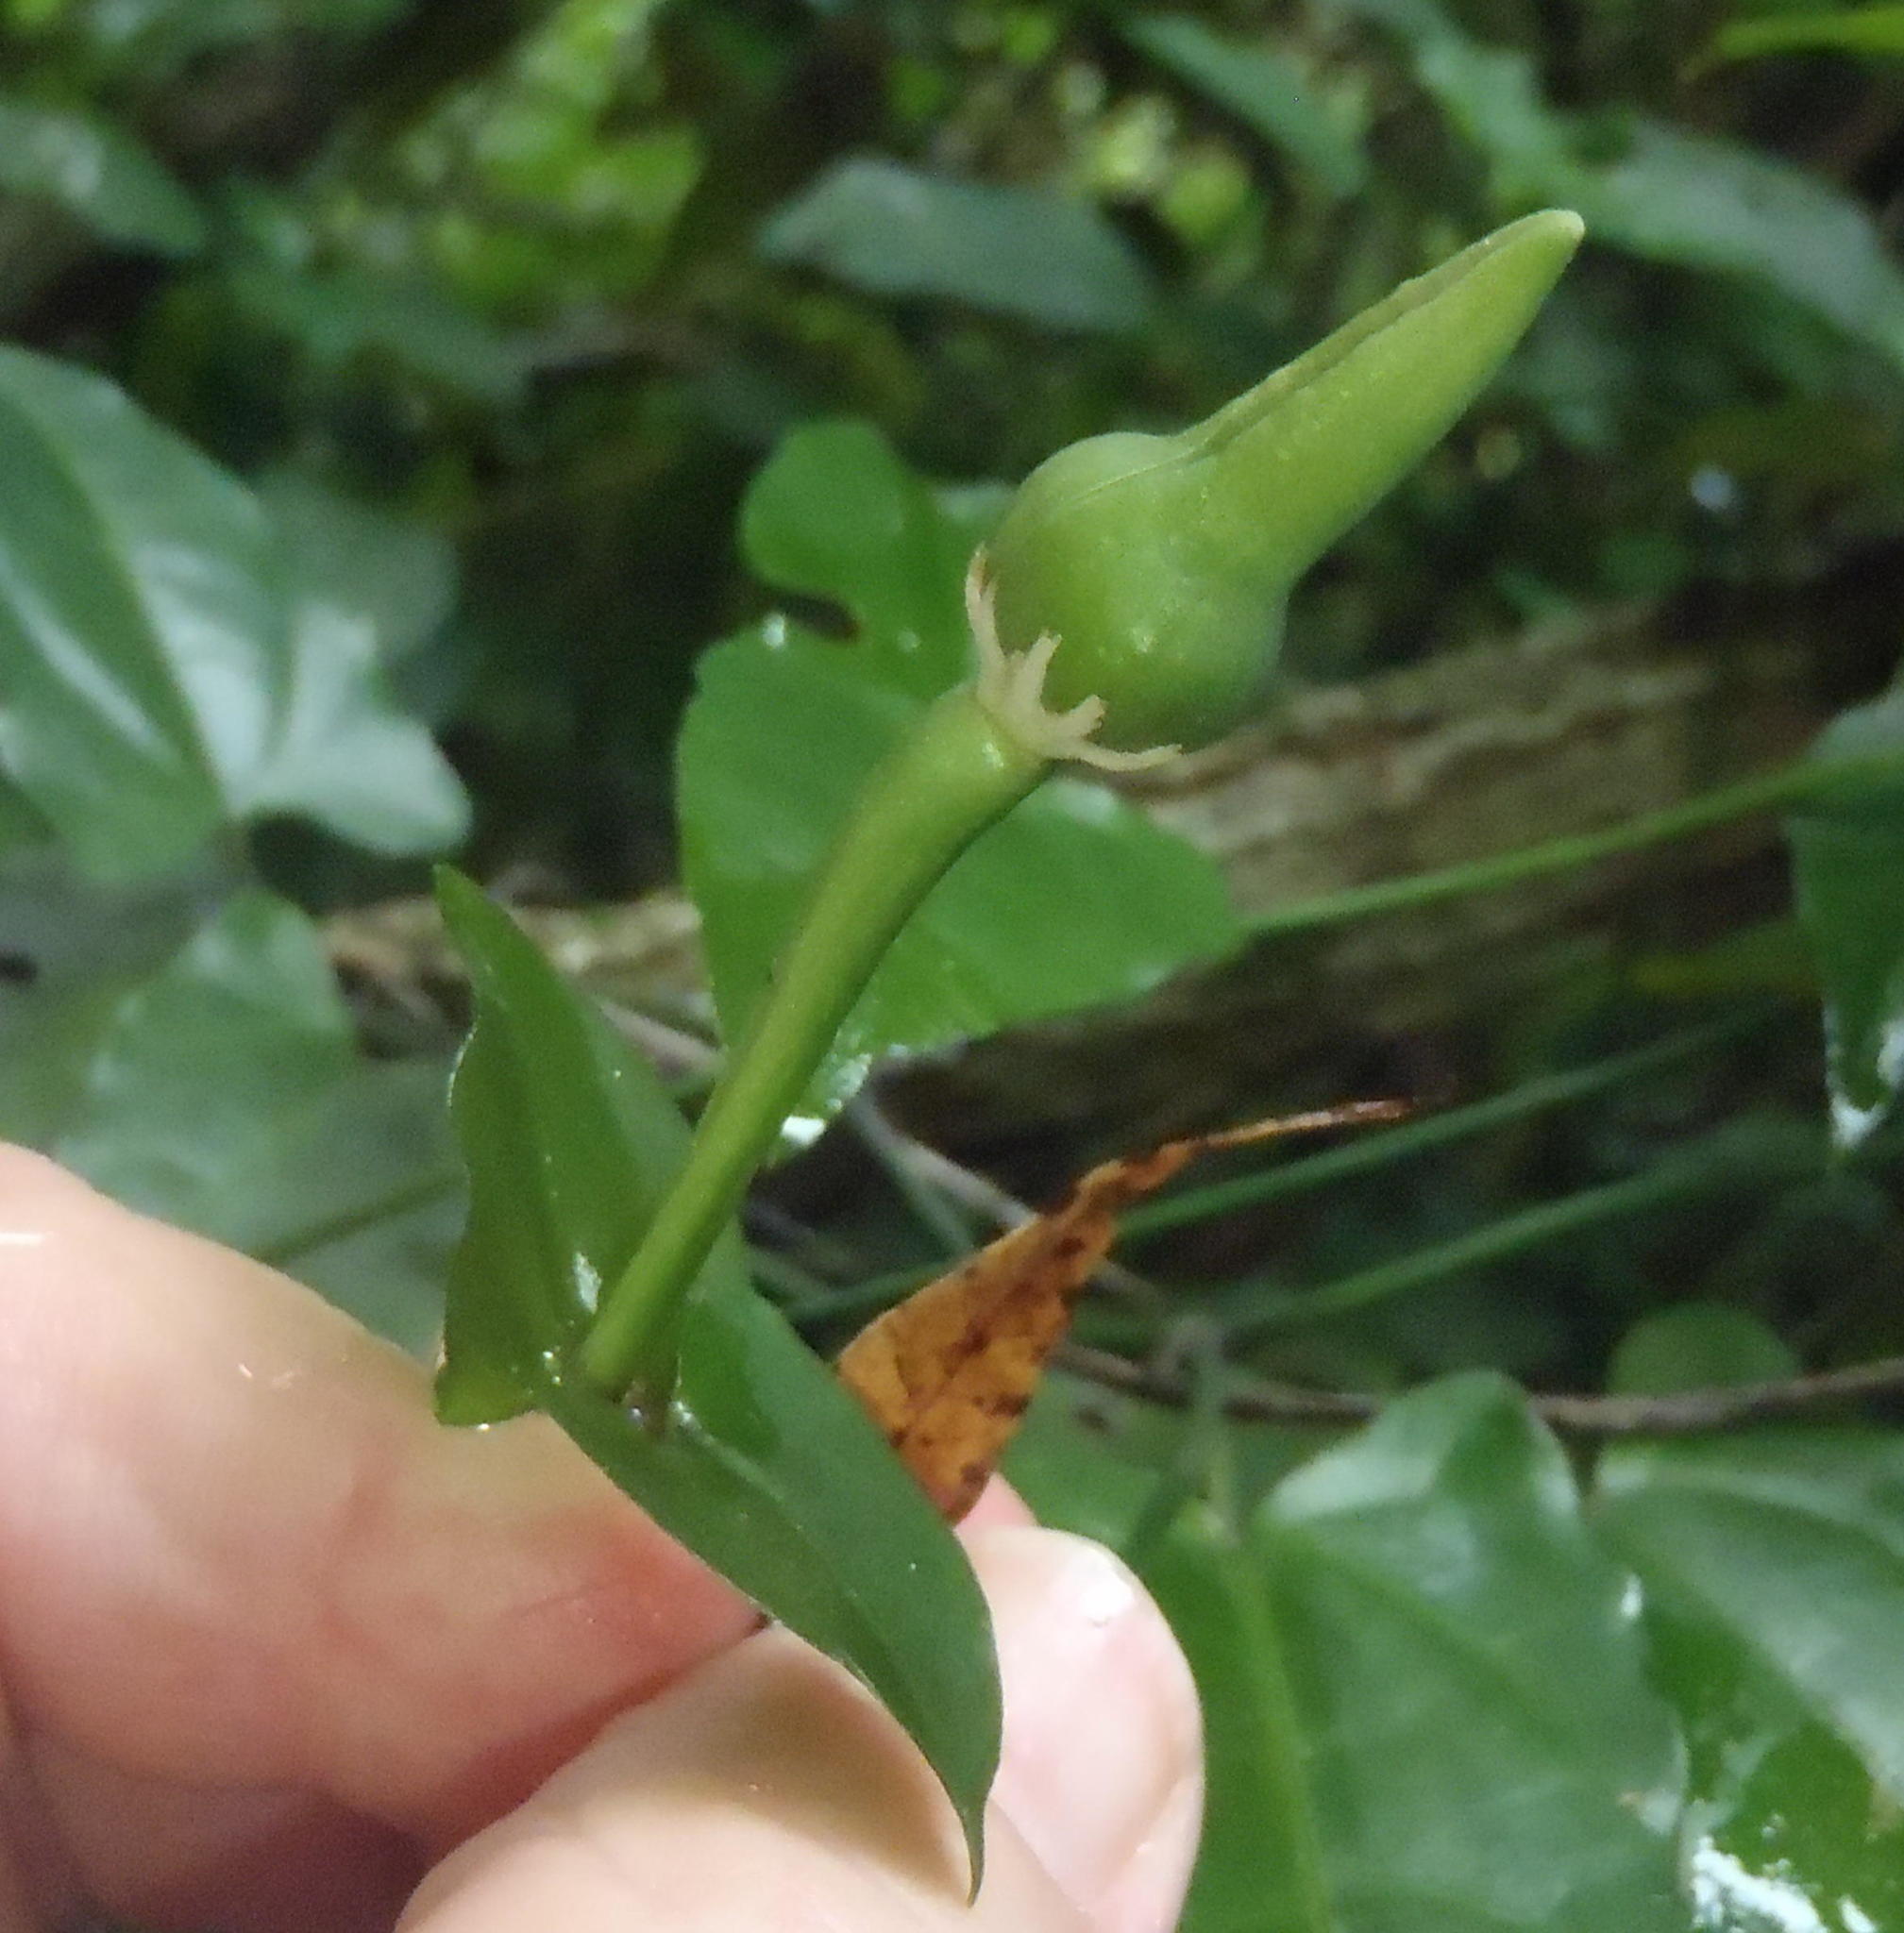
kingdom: Plantae
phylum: Tracheophyta
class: Magnoliopsida
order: Lamiales
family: Acanthaceae
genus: Thunbergia
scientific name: Thunbergia dregeana
